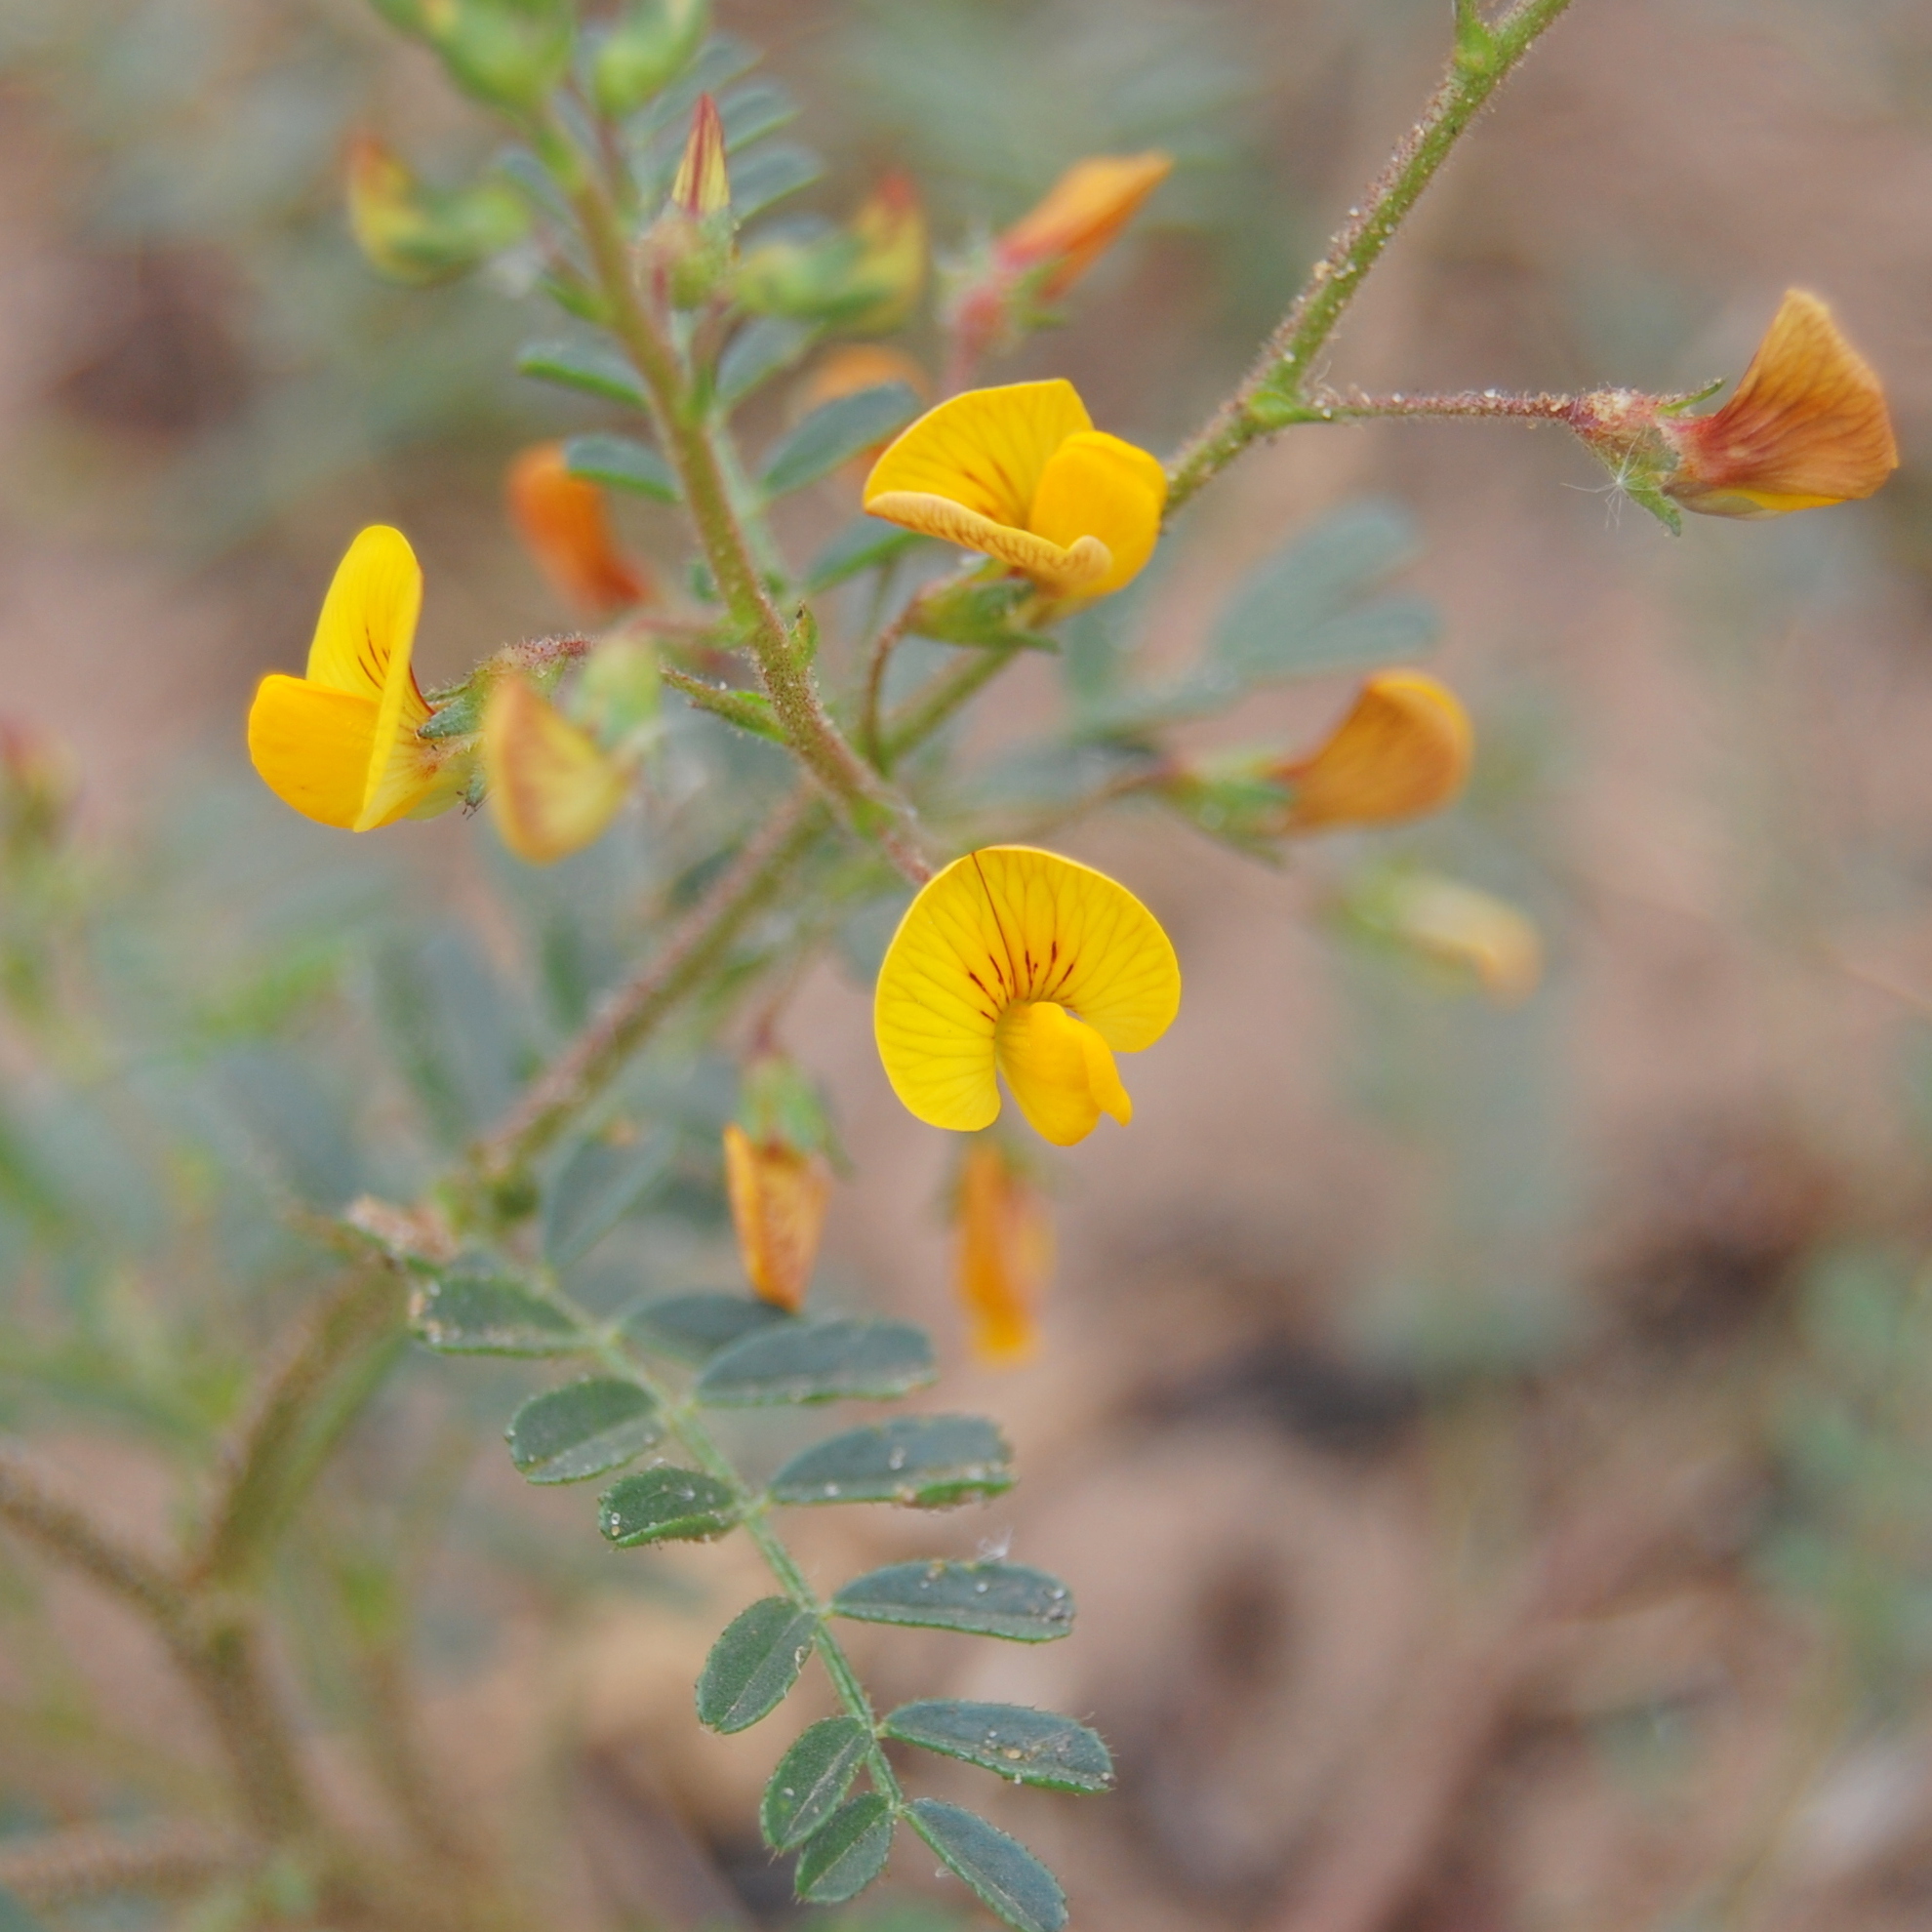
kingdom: Plantae
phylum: Tracheophyta
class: Magnoliopsida
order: Fabales
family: Fabaceae
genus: Adesmia
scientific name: Adesmia muricata
